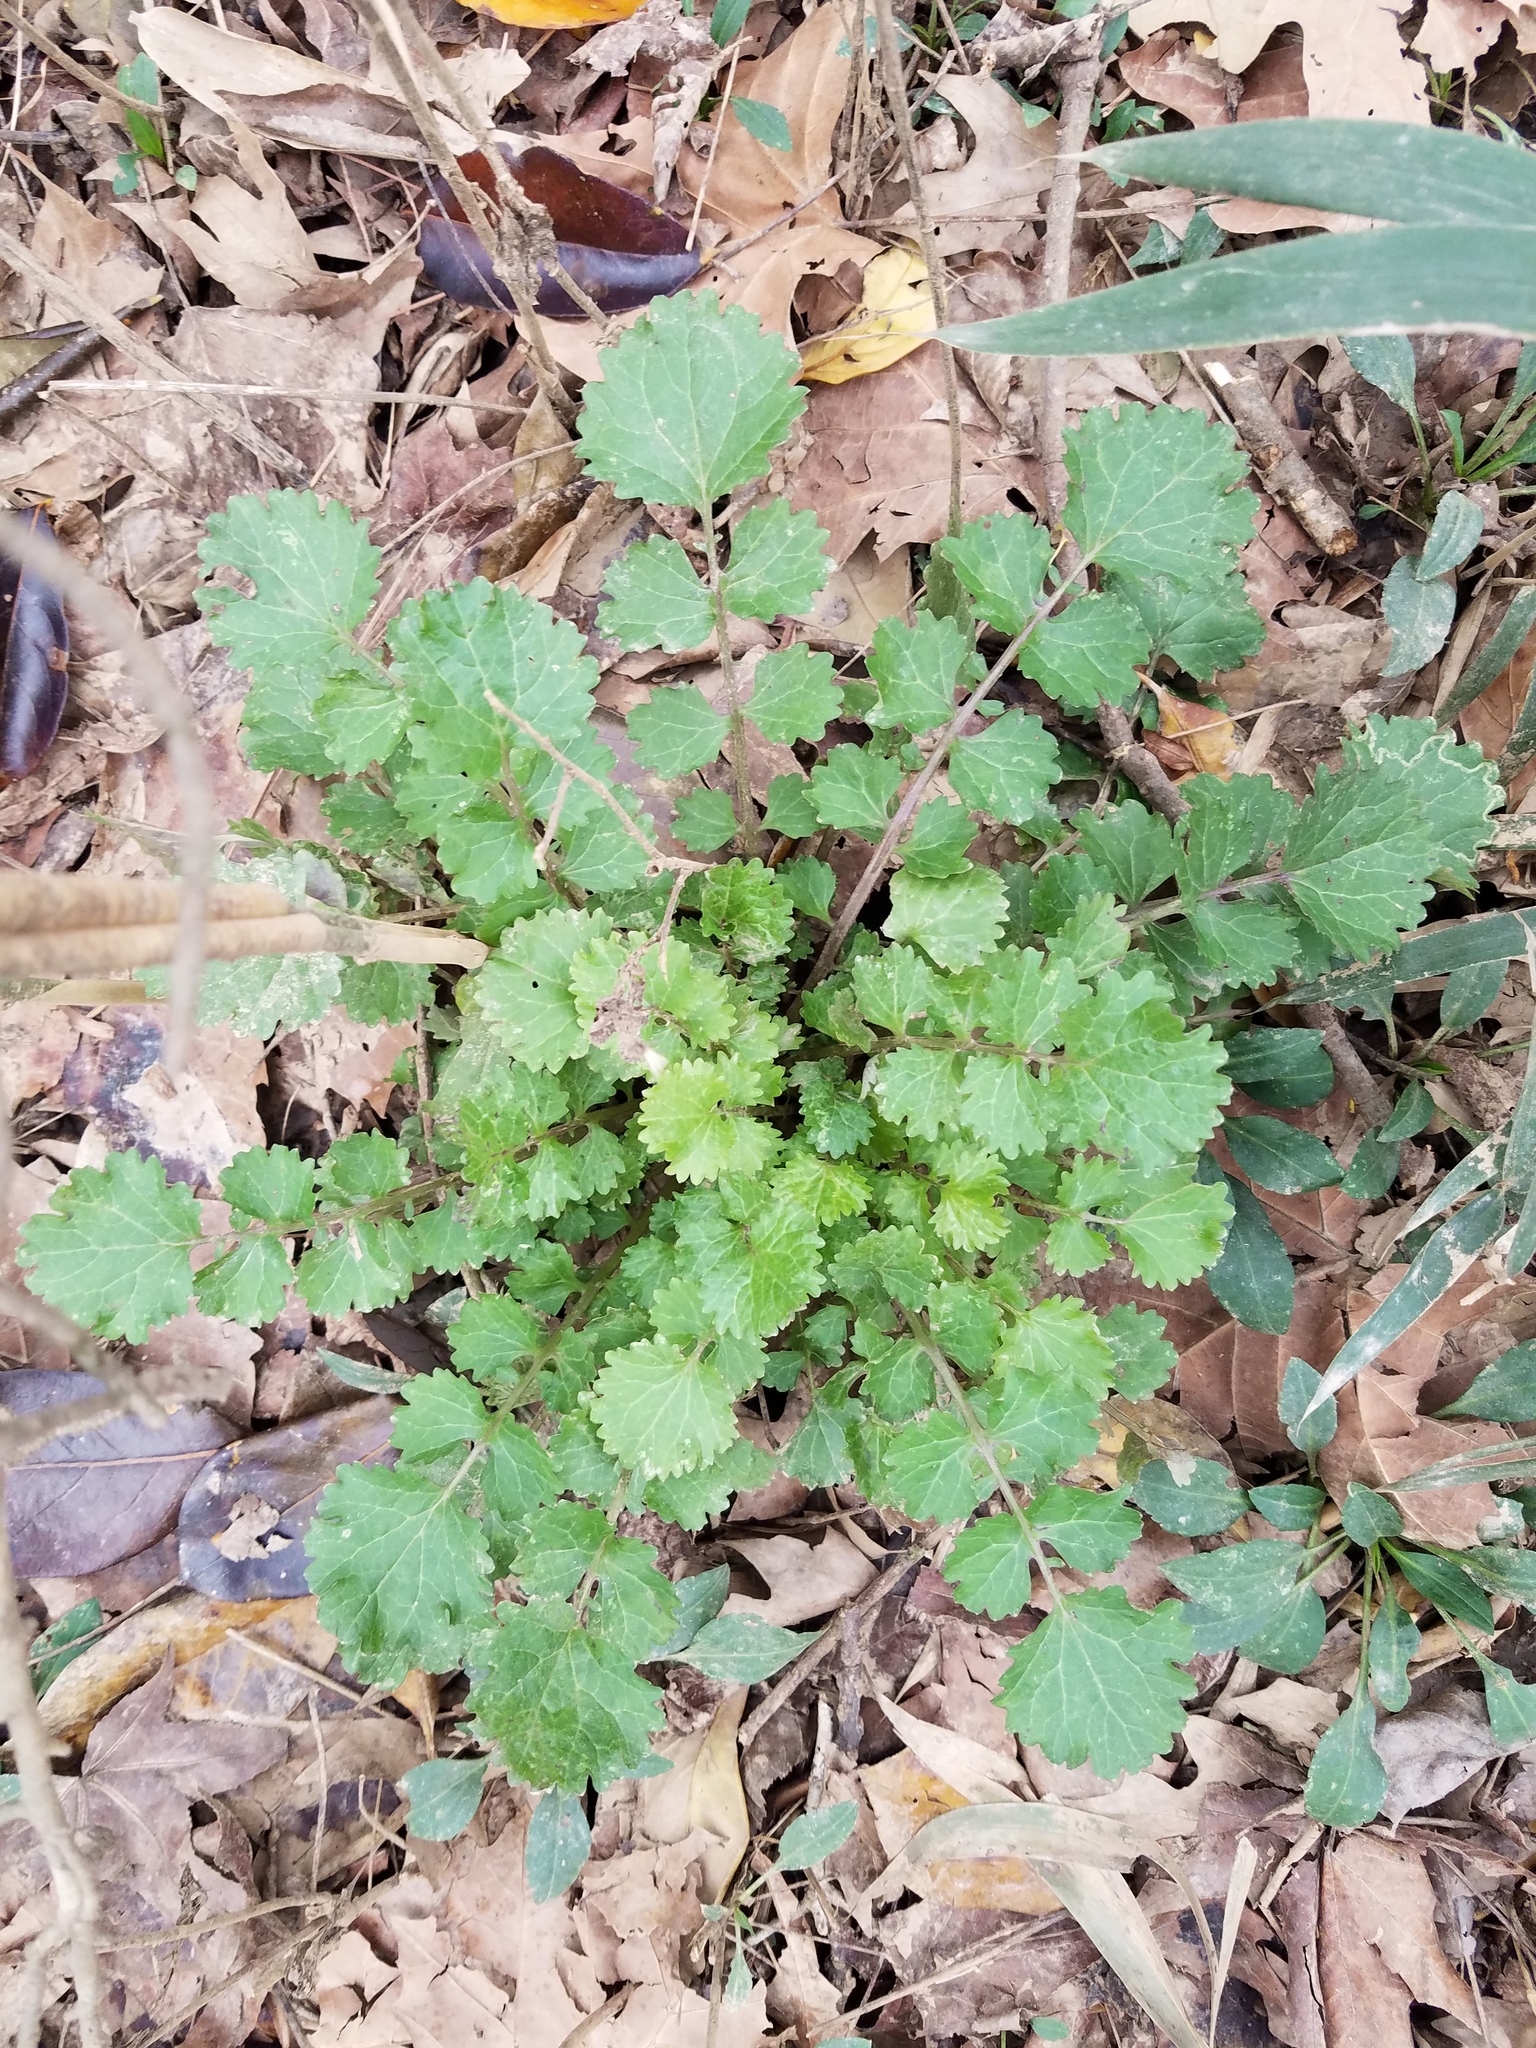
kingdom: Plantae
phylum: Tracheophyta
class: Magnoliopsida
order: Asterales
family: Asteraceae
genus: Packera
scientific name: Packera glabella
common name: Butterweed
